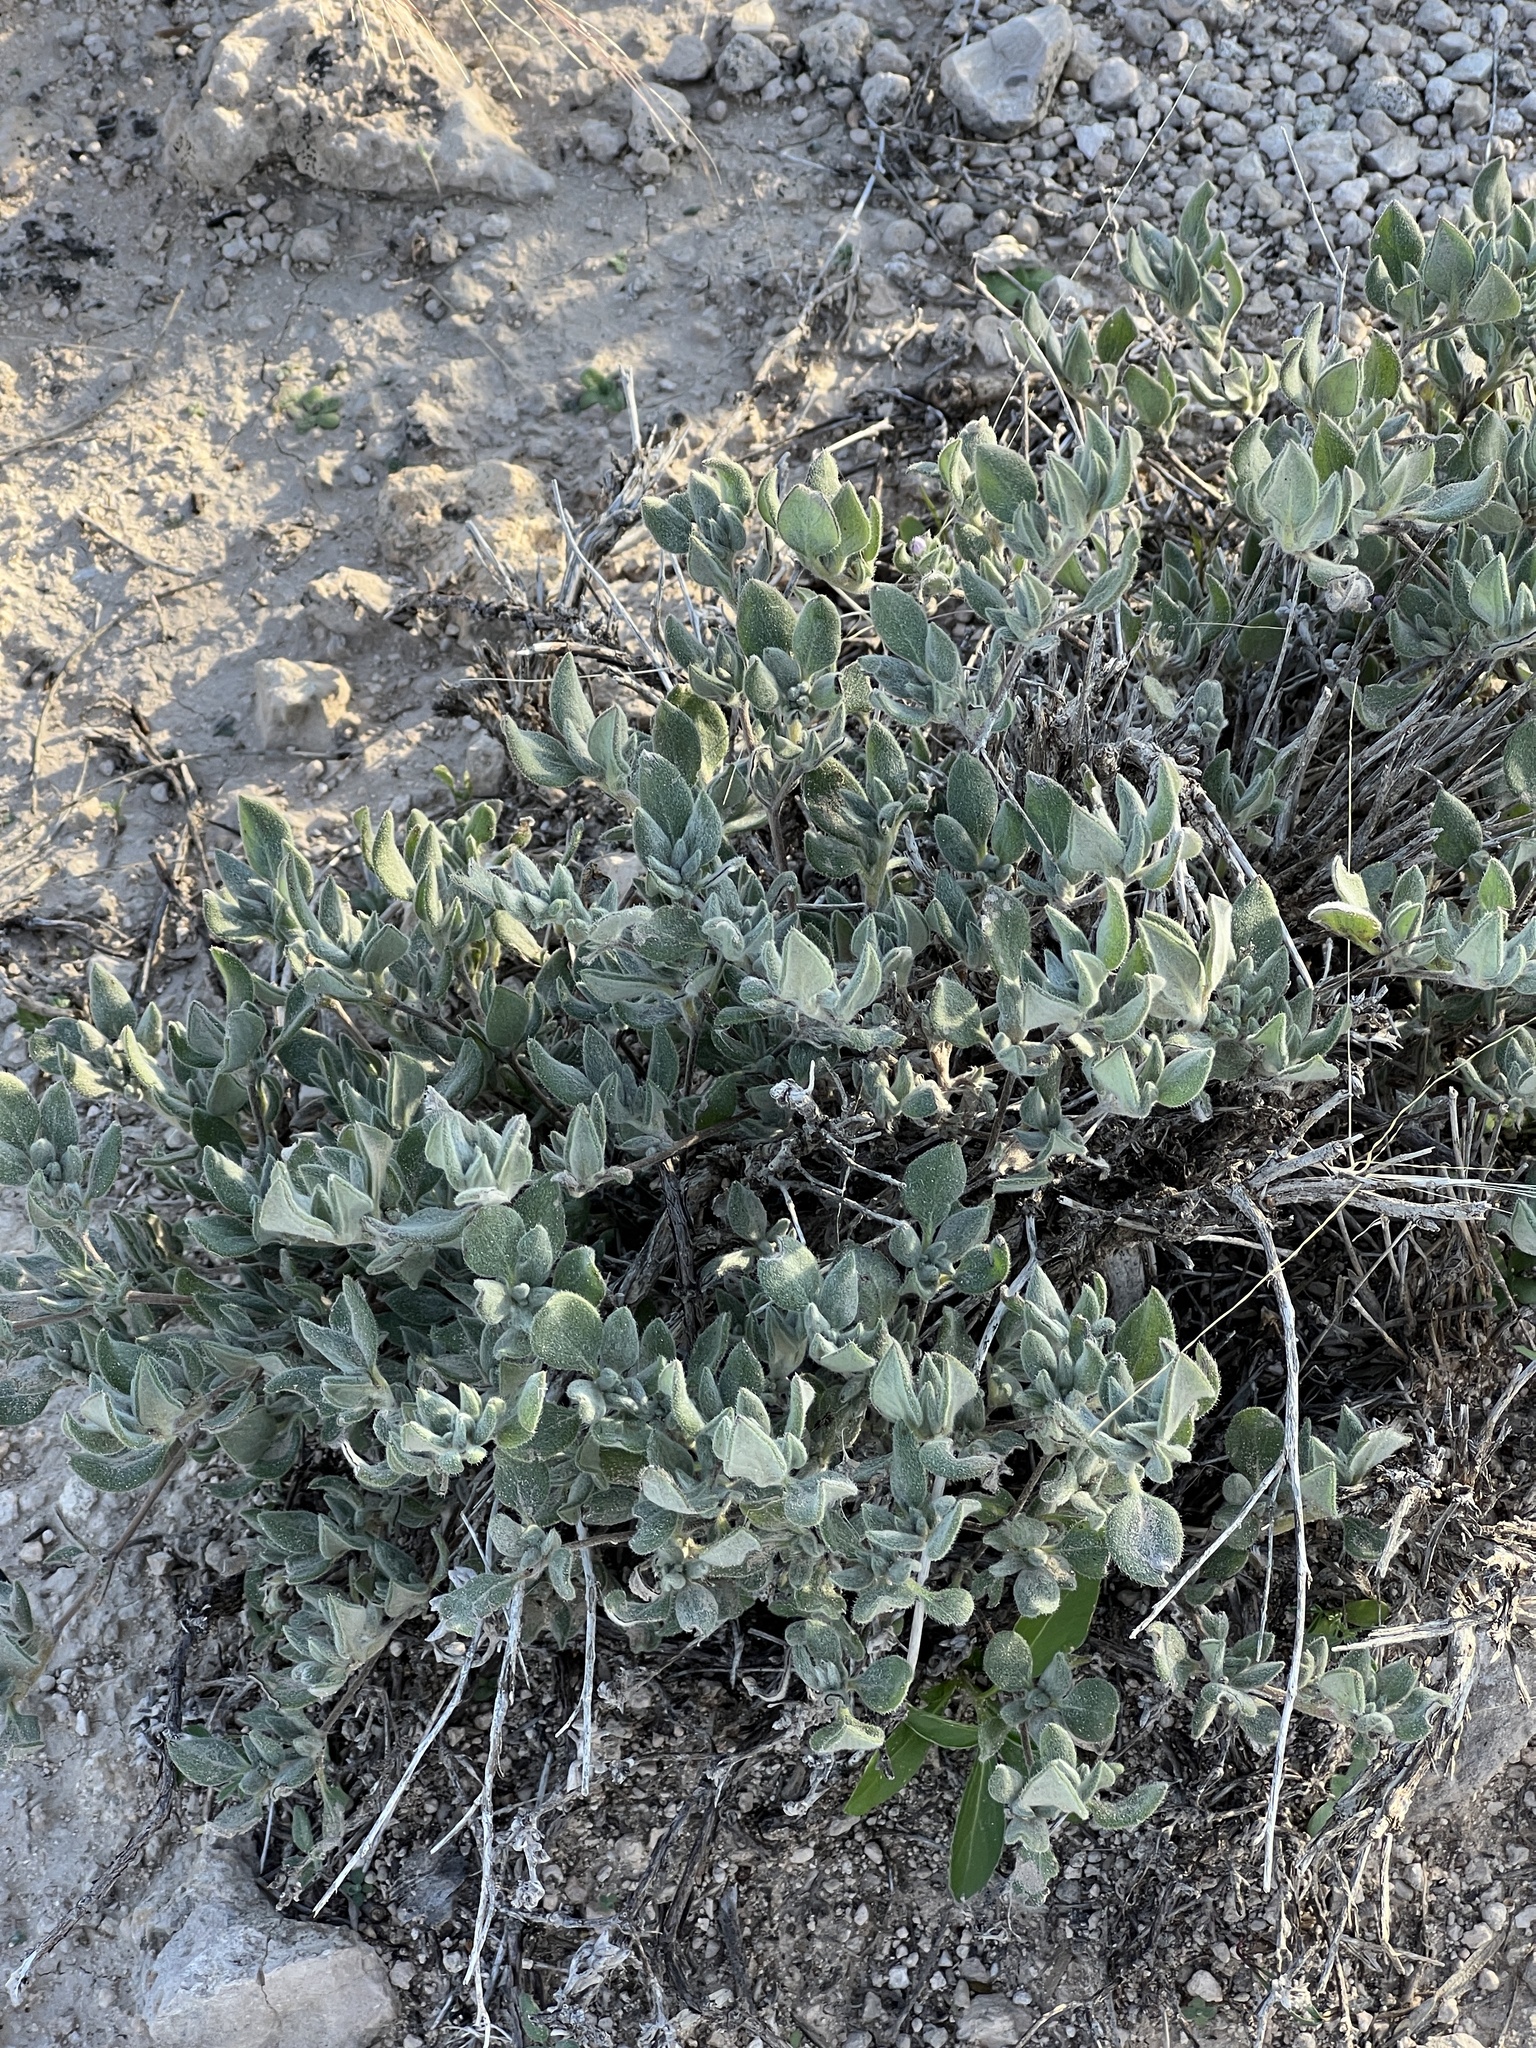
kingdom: Plantae
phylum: Tracheophyta
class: Magnoliopsida
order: Boraginales
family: Ehretiaceae
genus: Tiquilia
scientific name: Tiquilia canescens
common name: Hairy tiquilia
